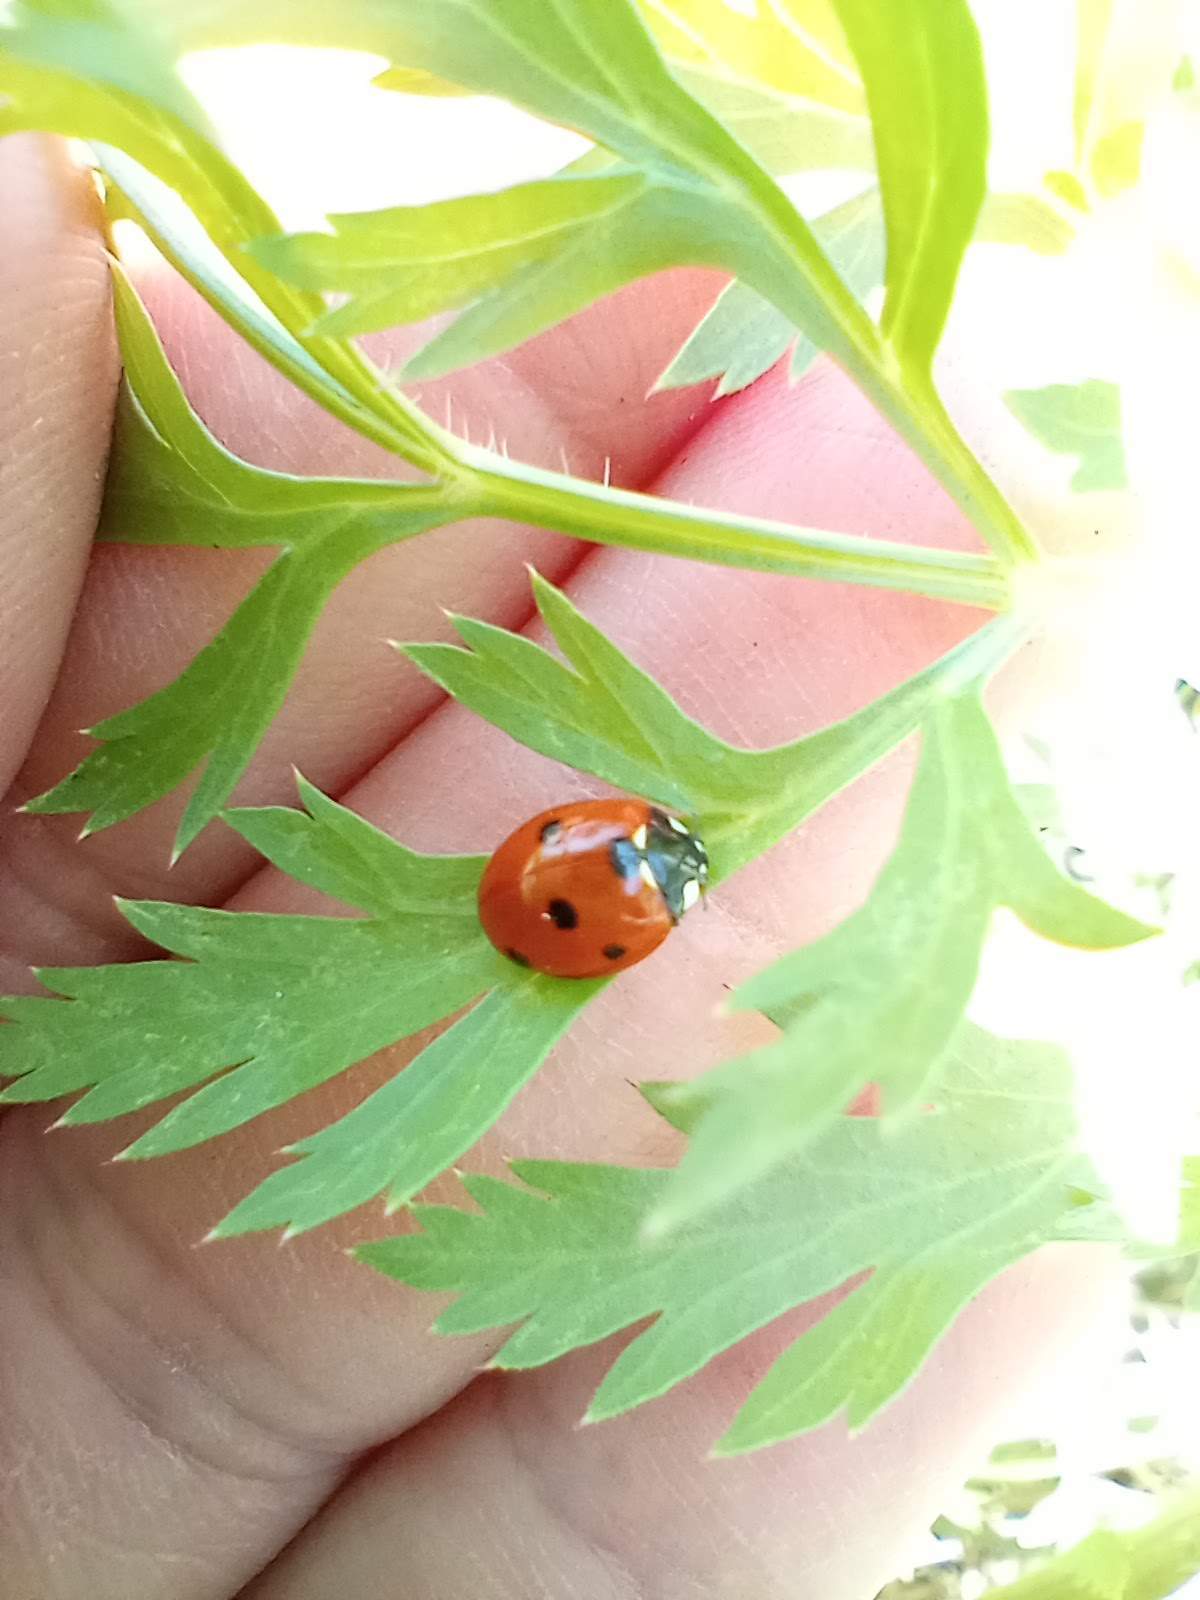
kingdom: Animalia
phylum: Arthropoda
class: Insecta
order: Coleoptera
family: Coccinellidae
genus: Coccinella
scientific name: Coccinella septempunctata
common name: Sevenspotted lady beetle
